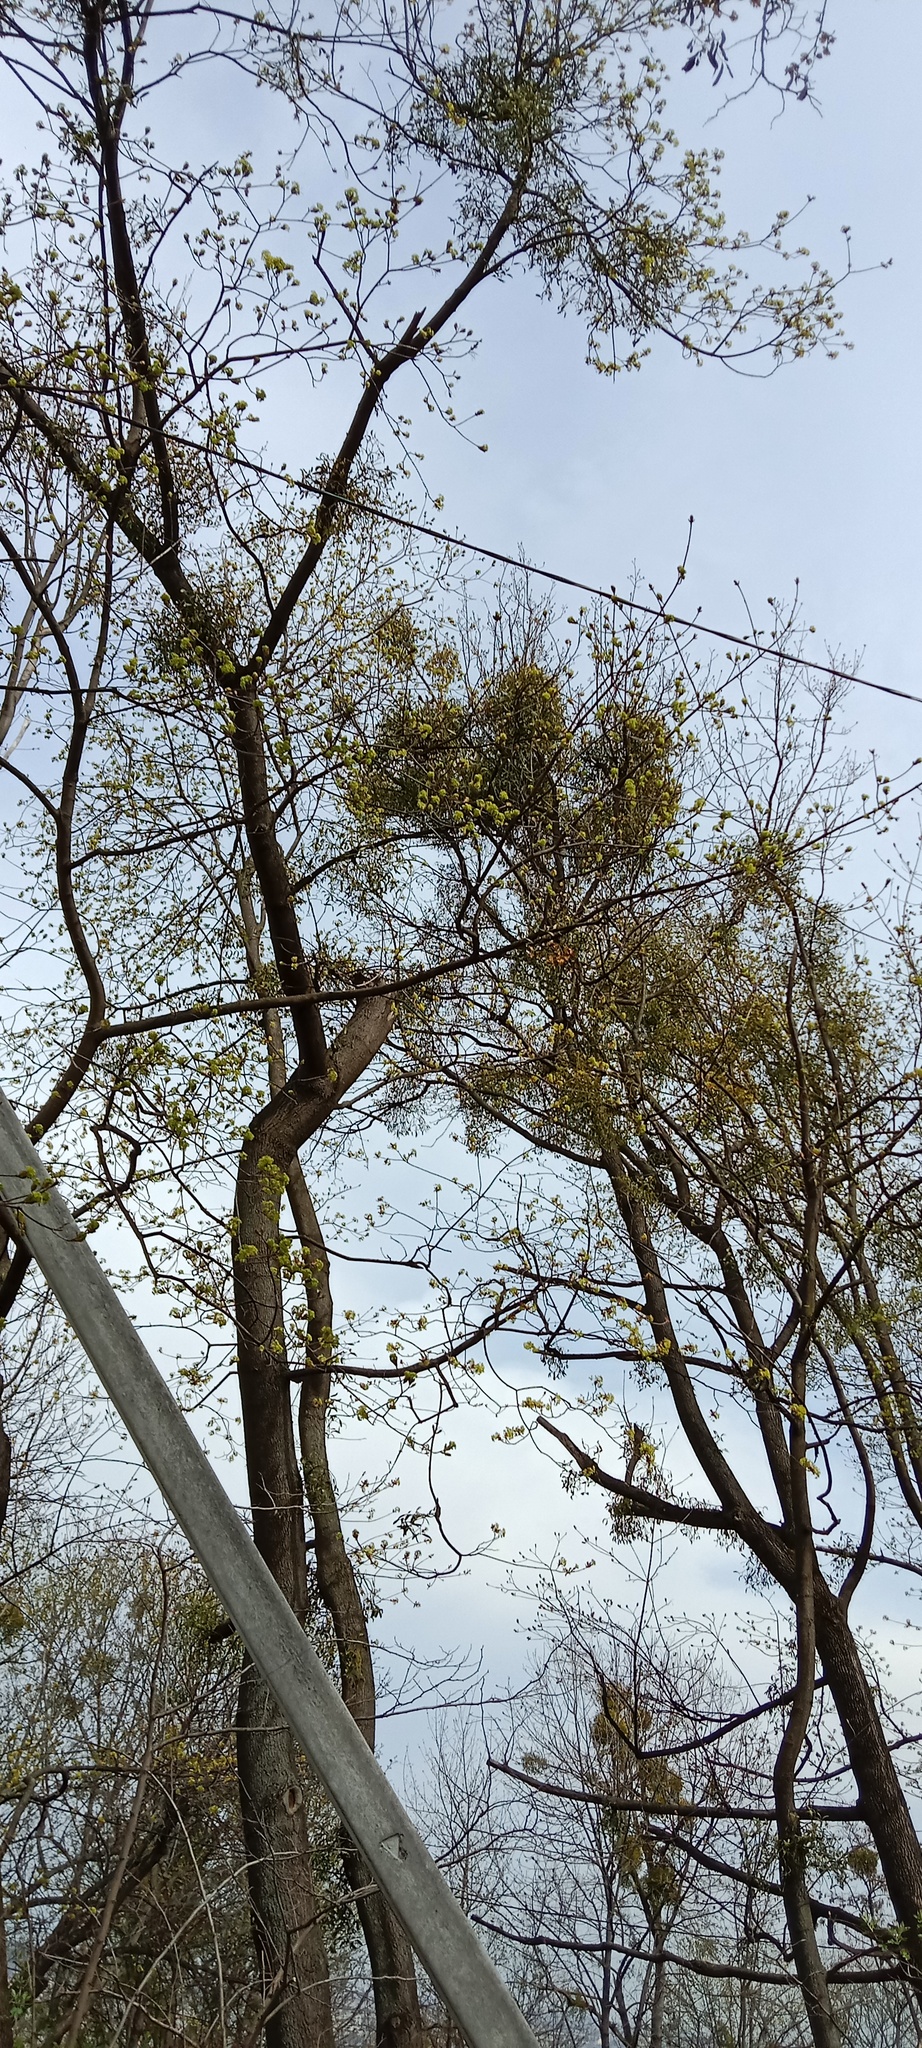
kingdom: Plantae
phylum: Tracheophyta
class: Magnoliopsida
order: Santalales
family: Viscaceae
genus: Viscum
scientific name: Viscum album
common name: Mistletoe
